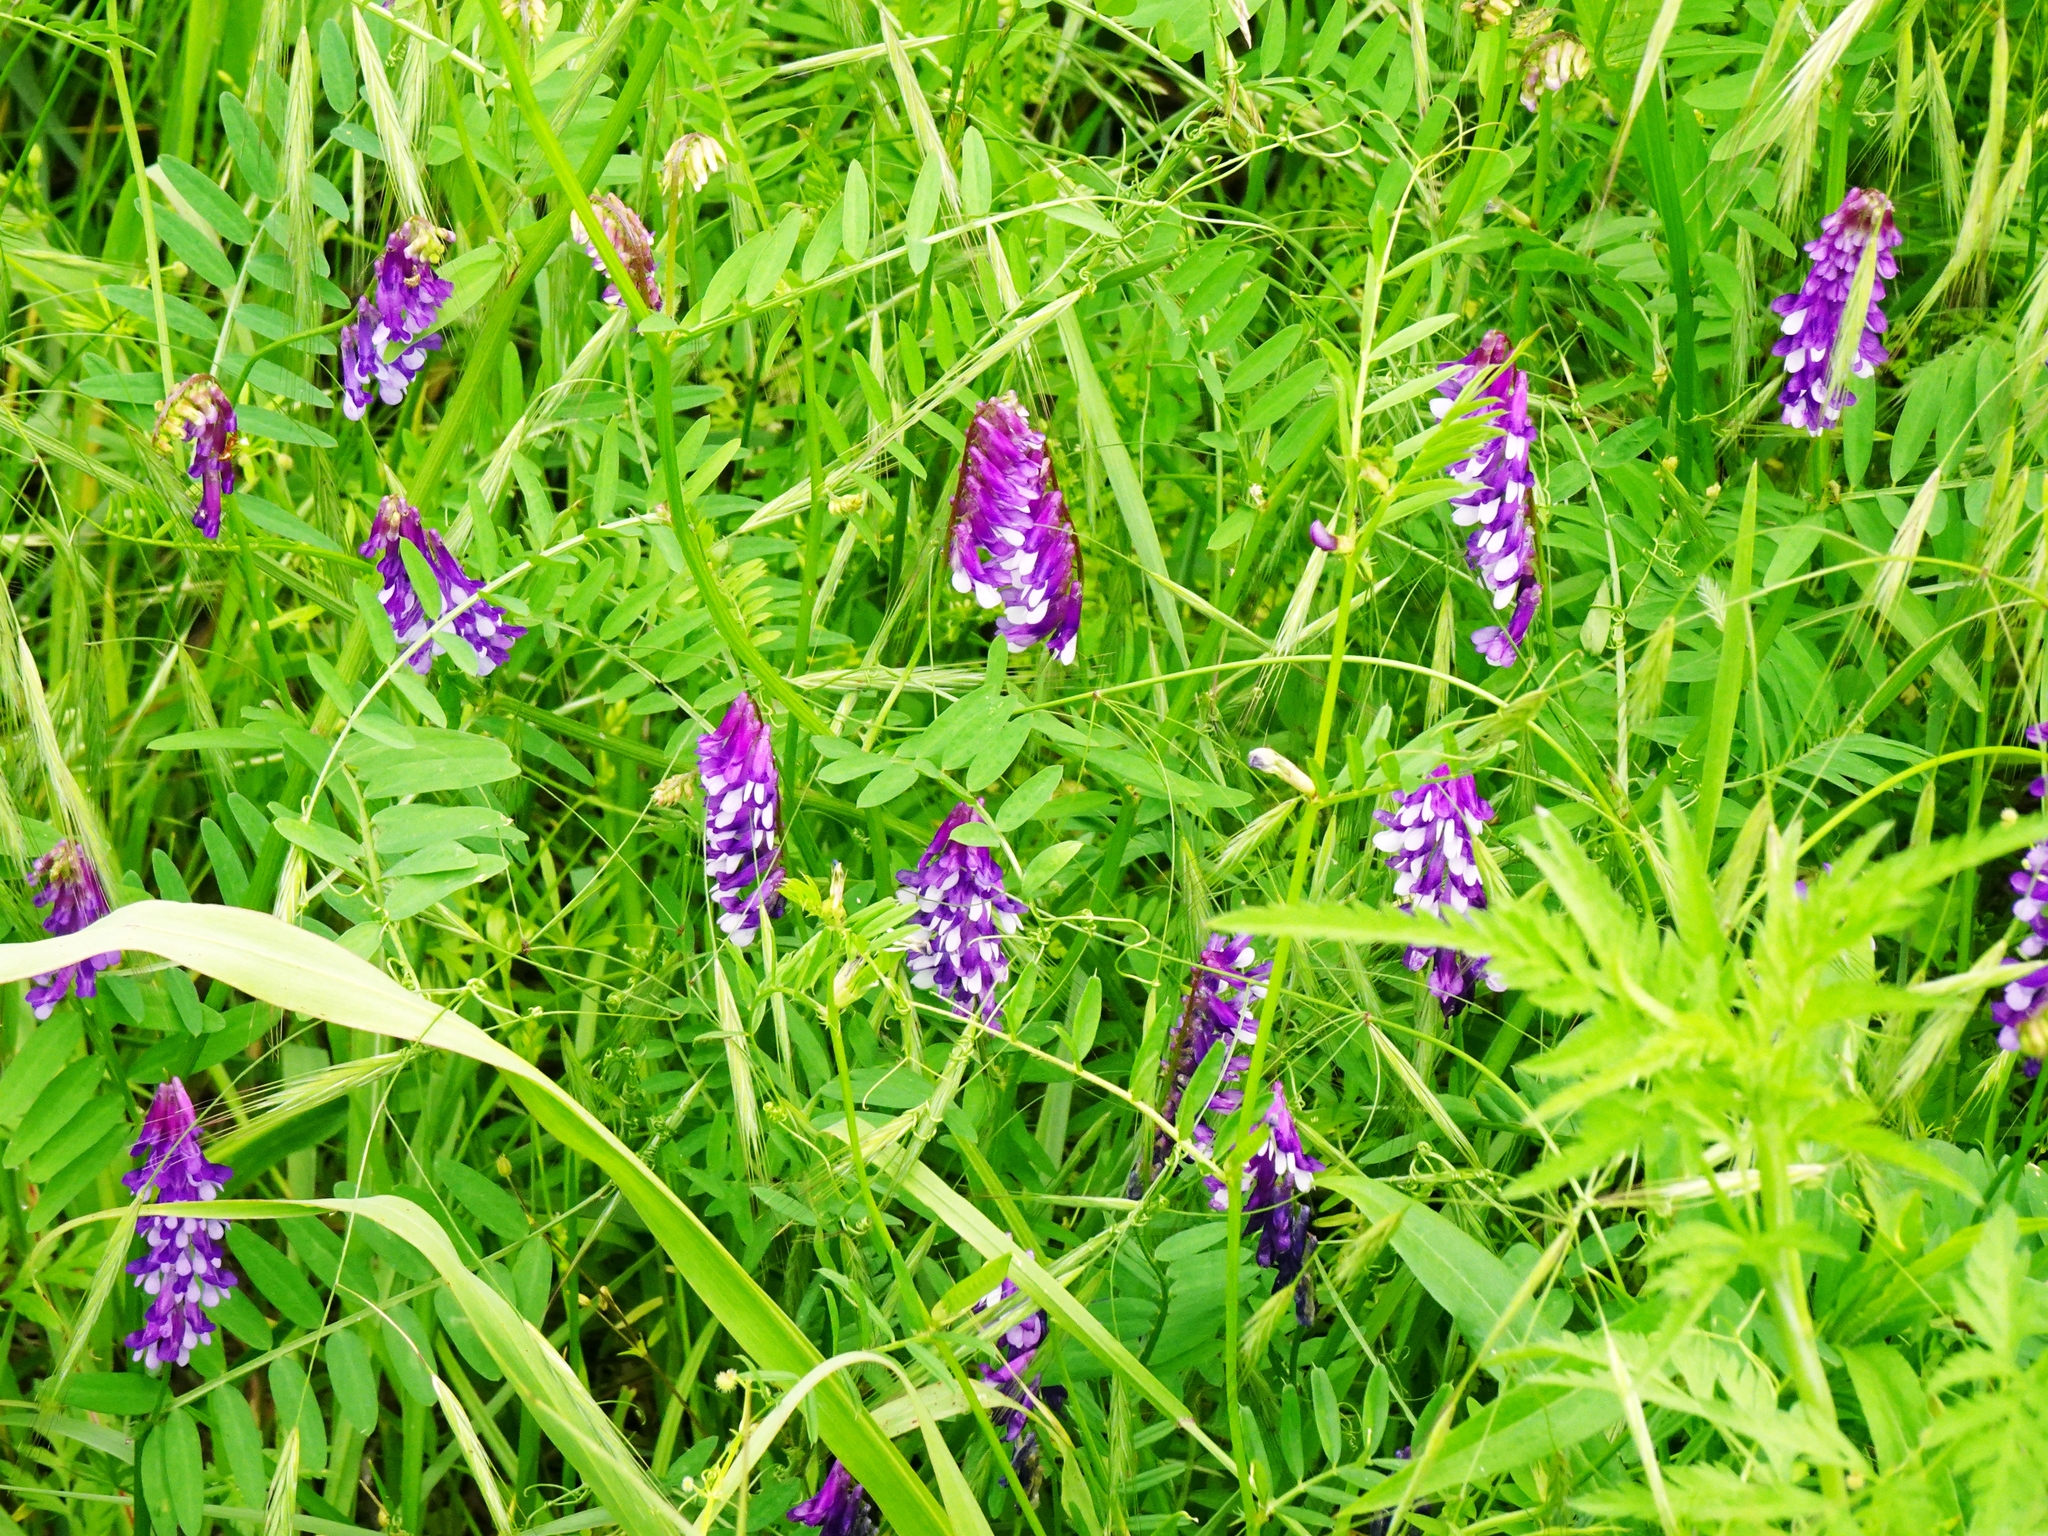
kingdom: Plantae
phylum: Tracheophyta
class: Magnoliopsida
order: Fabales
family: Fabaceae
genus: Vicia
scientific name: Vicia villosa
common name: Fodder vetch
